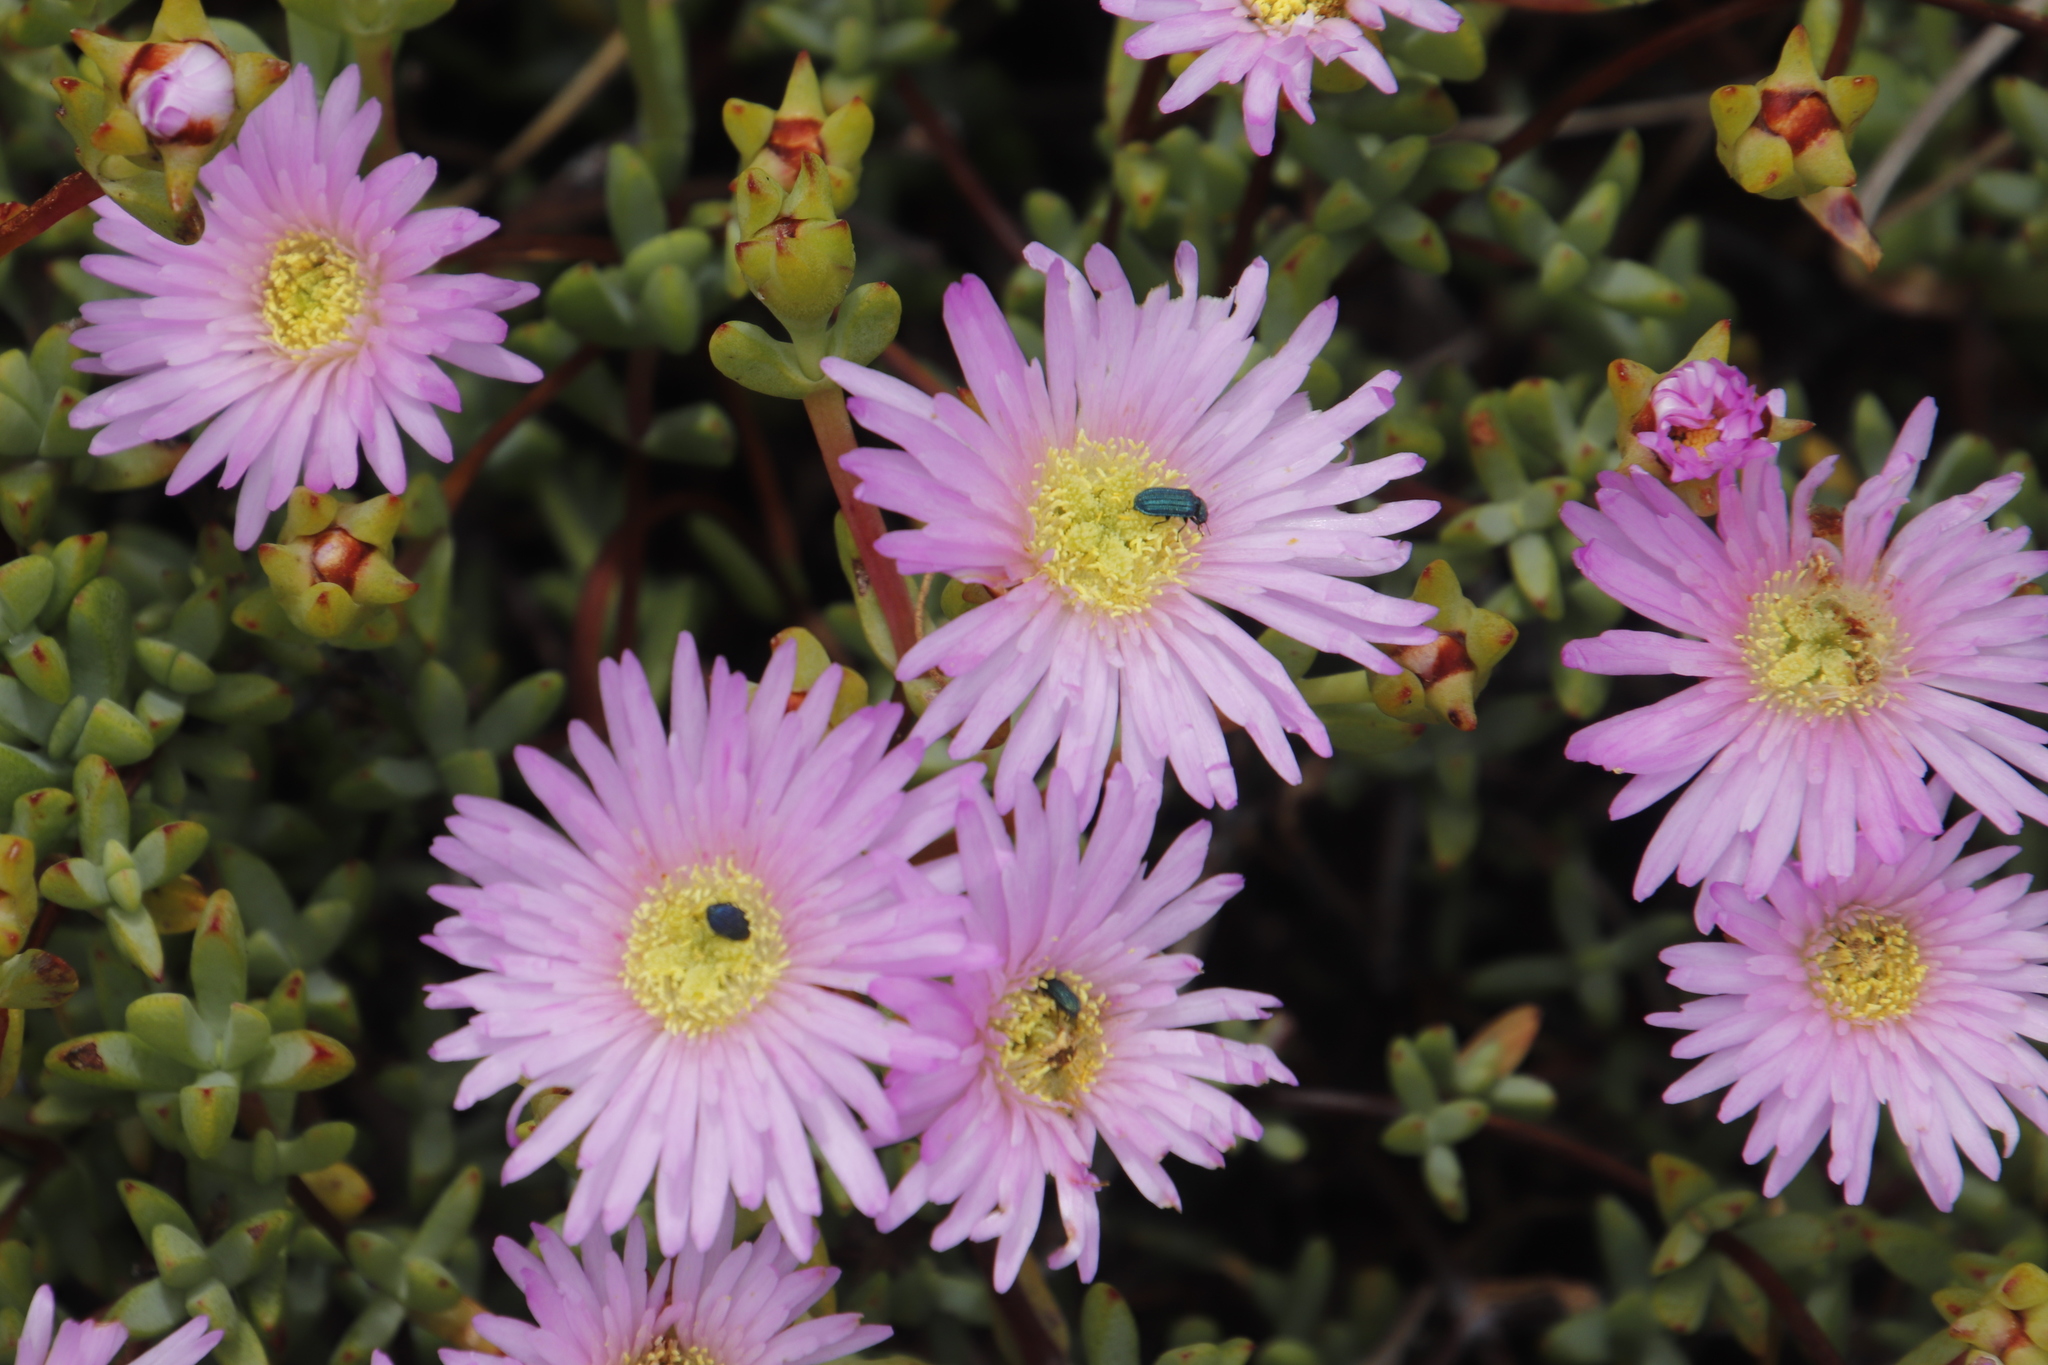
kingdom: Plantae
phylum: Tracheophyta
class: Magnoliopsida
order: Caryophyllales
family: Aizoaceae
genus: Oscularia
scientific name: Oscularia falciformis
